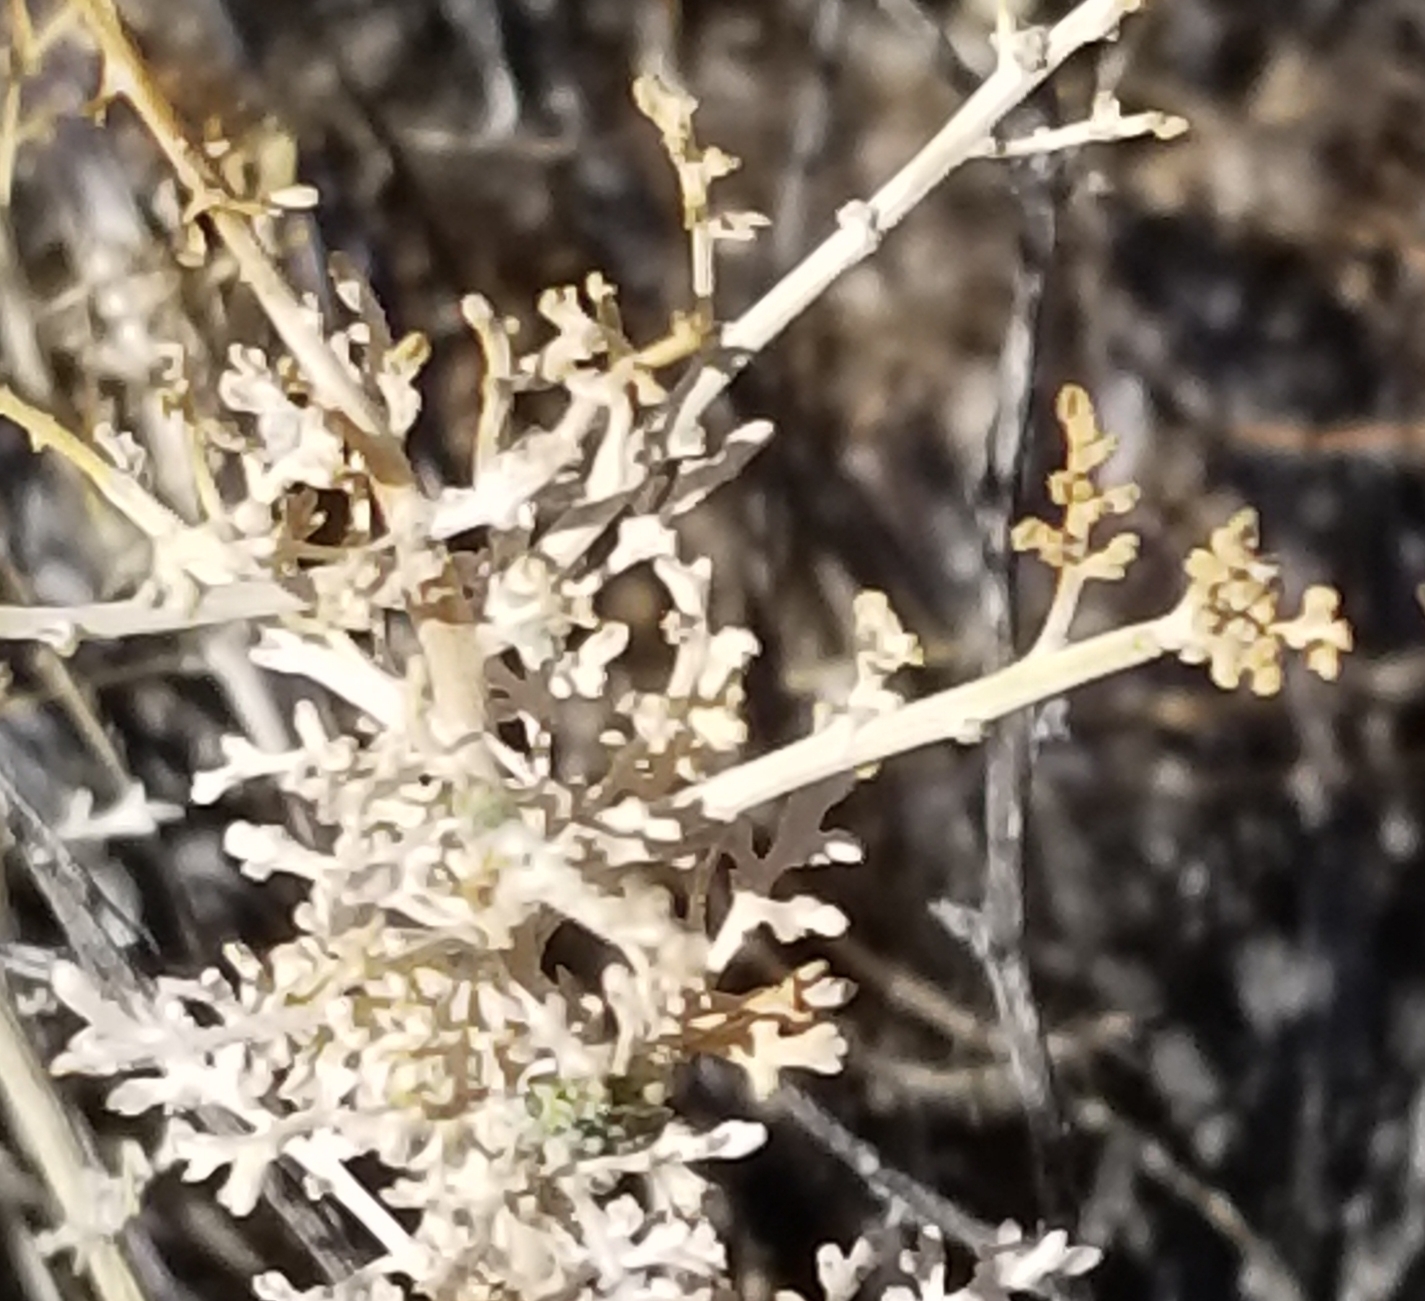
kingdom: Plantae
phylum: Tracheophyta
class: Magnoliopsida
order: Asterales
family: Asteraceae
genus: Ambrosia
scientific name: Ambrosia dumosa
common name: Bur-sage
